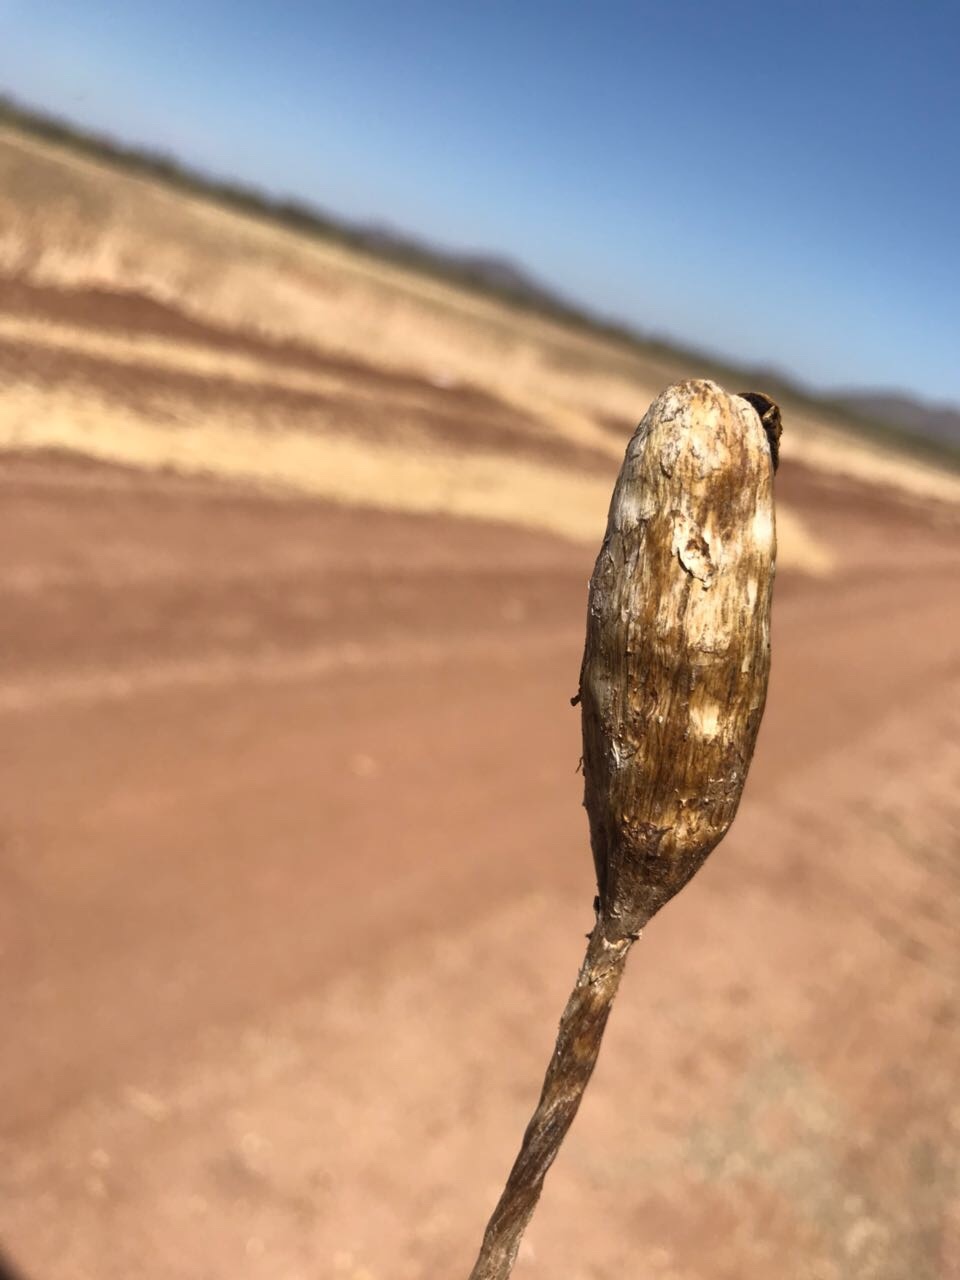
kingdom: Fungi
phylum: Basidiomycota
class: Agaricomycetes
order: Agaricales
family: Agaricaceae
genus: Podaxis
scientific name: Podaxis pistillaris
